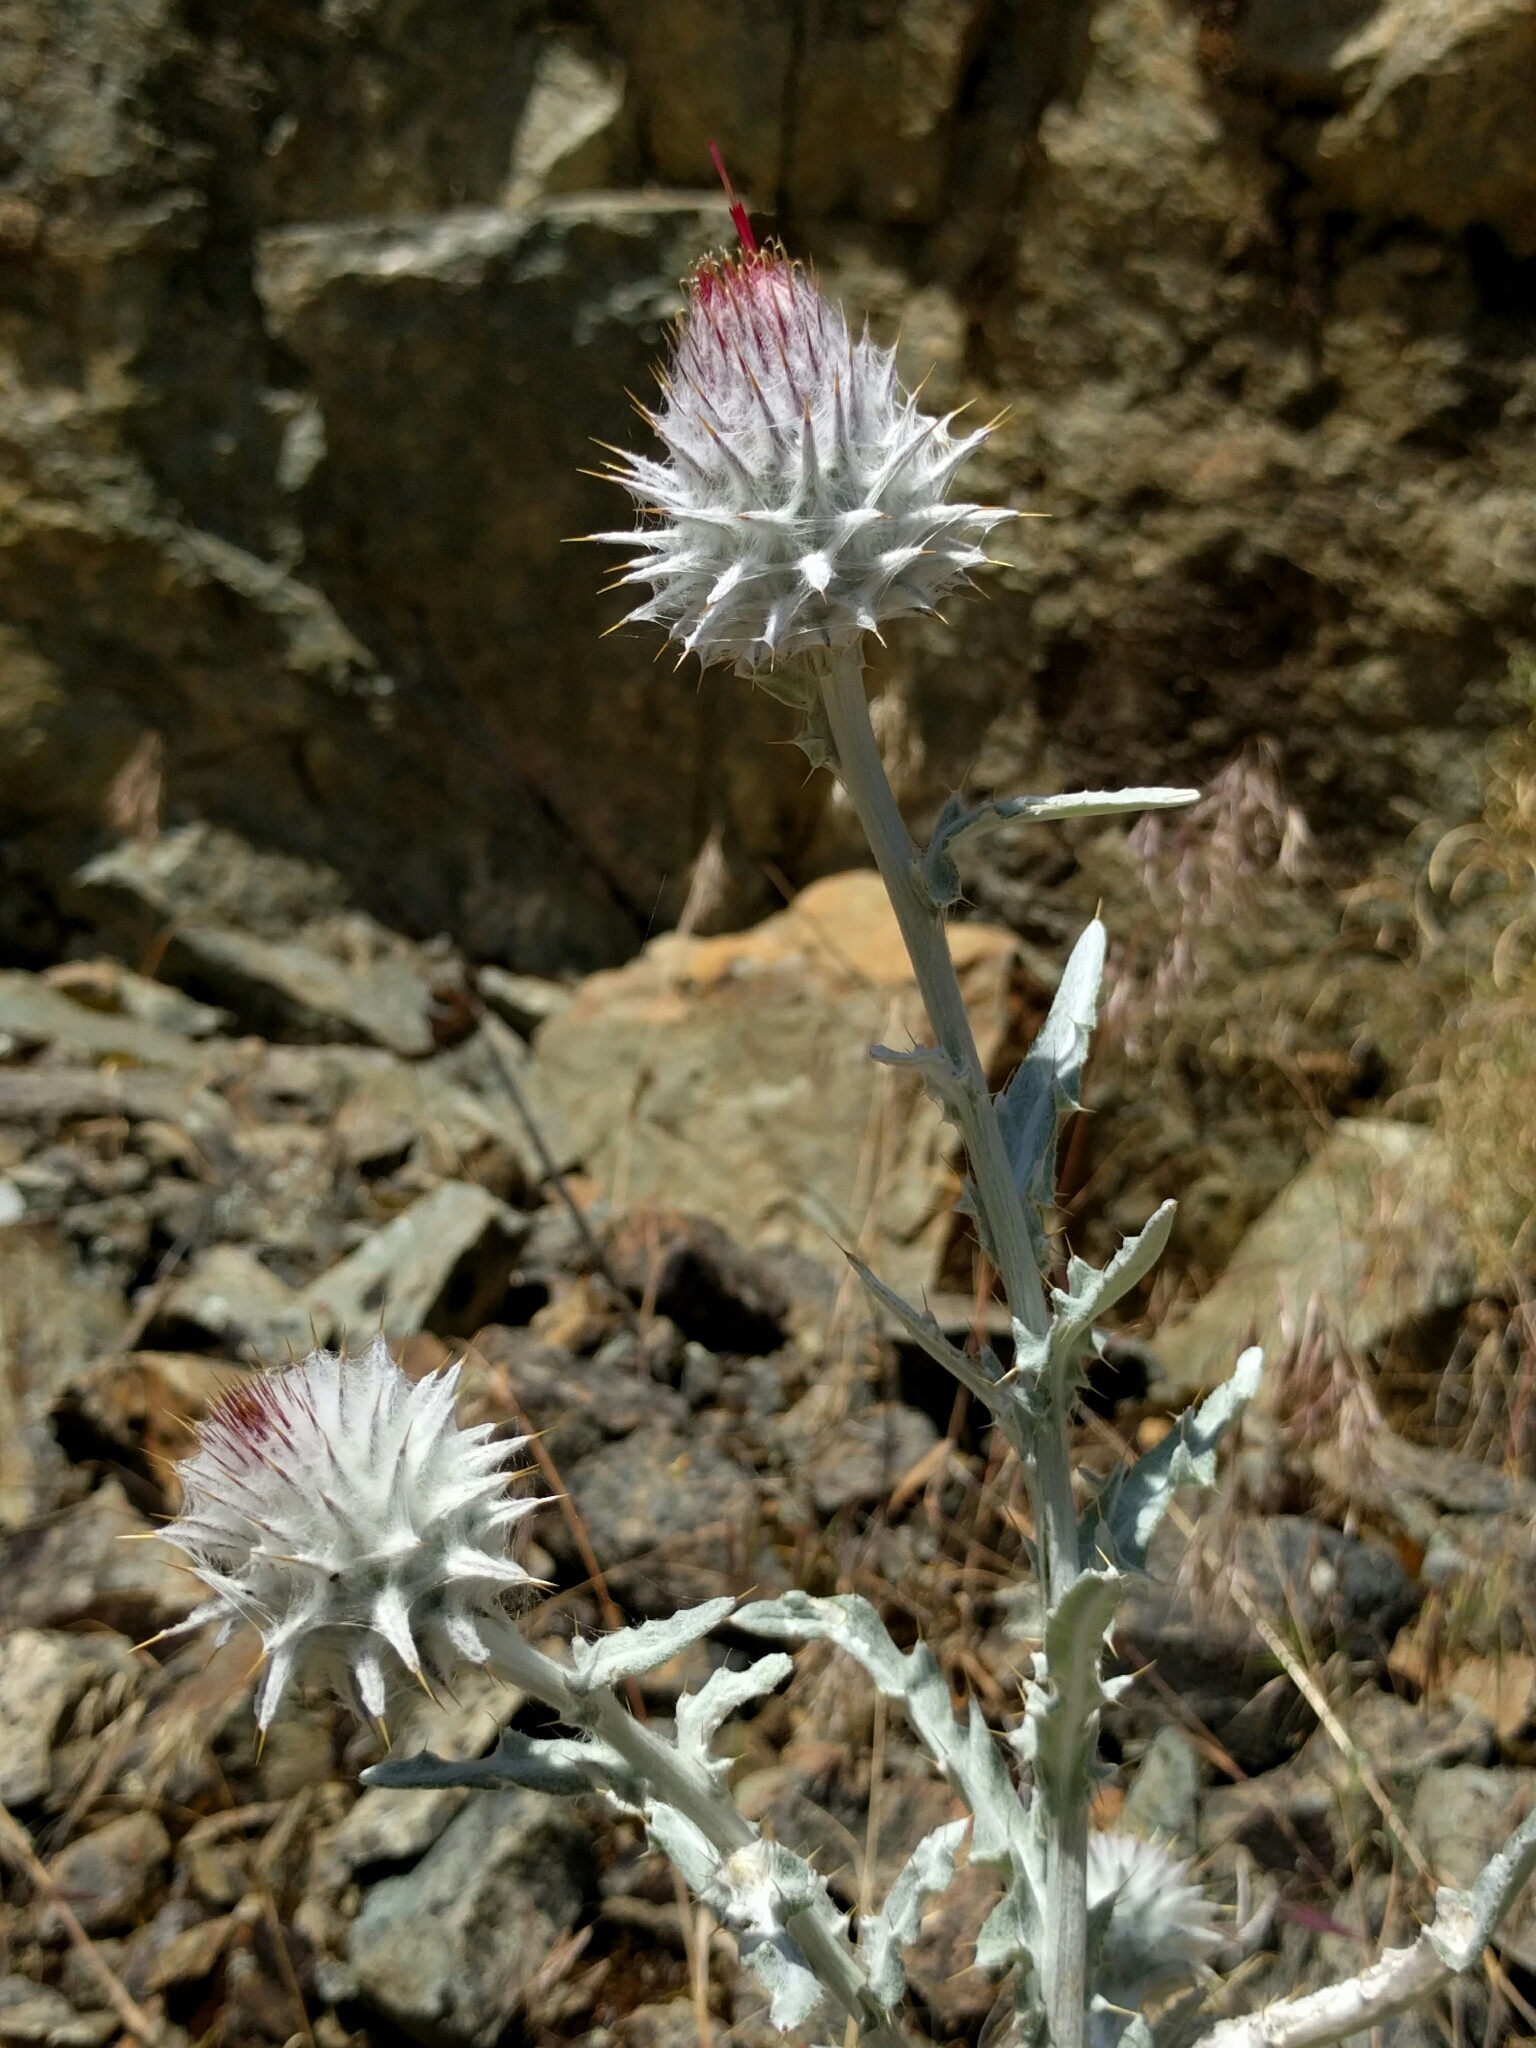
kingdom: Plantae
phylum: Tracheophyta
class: Magnoliopsida
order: Asterales
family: Asteraceae
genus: Cirsium
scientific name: Cirsium occidentale
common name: Western thistle
